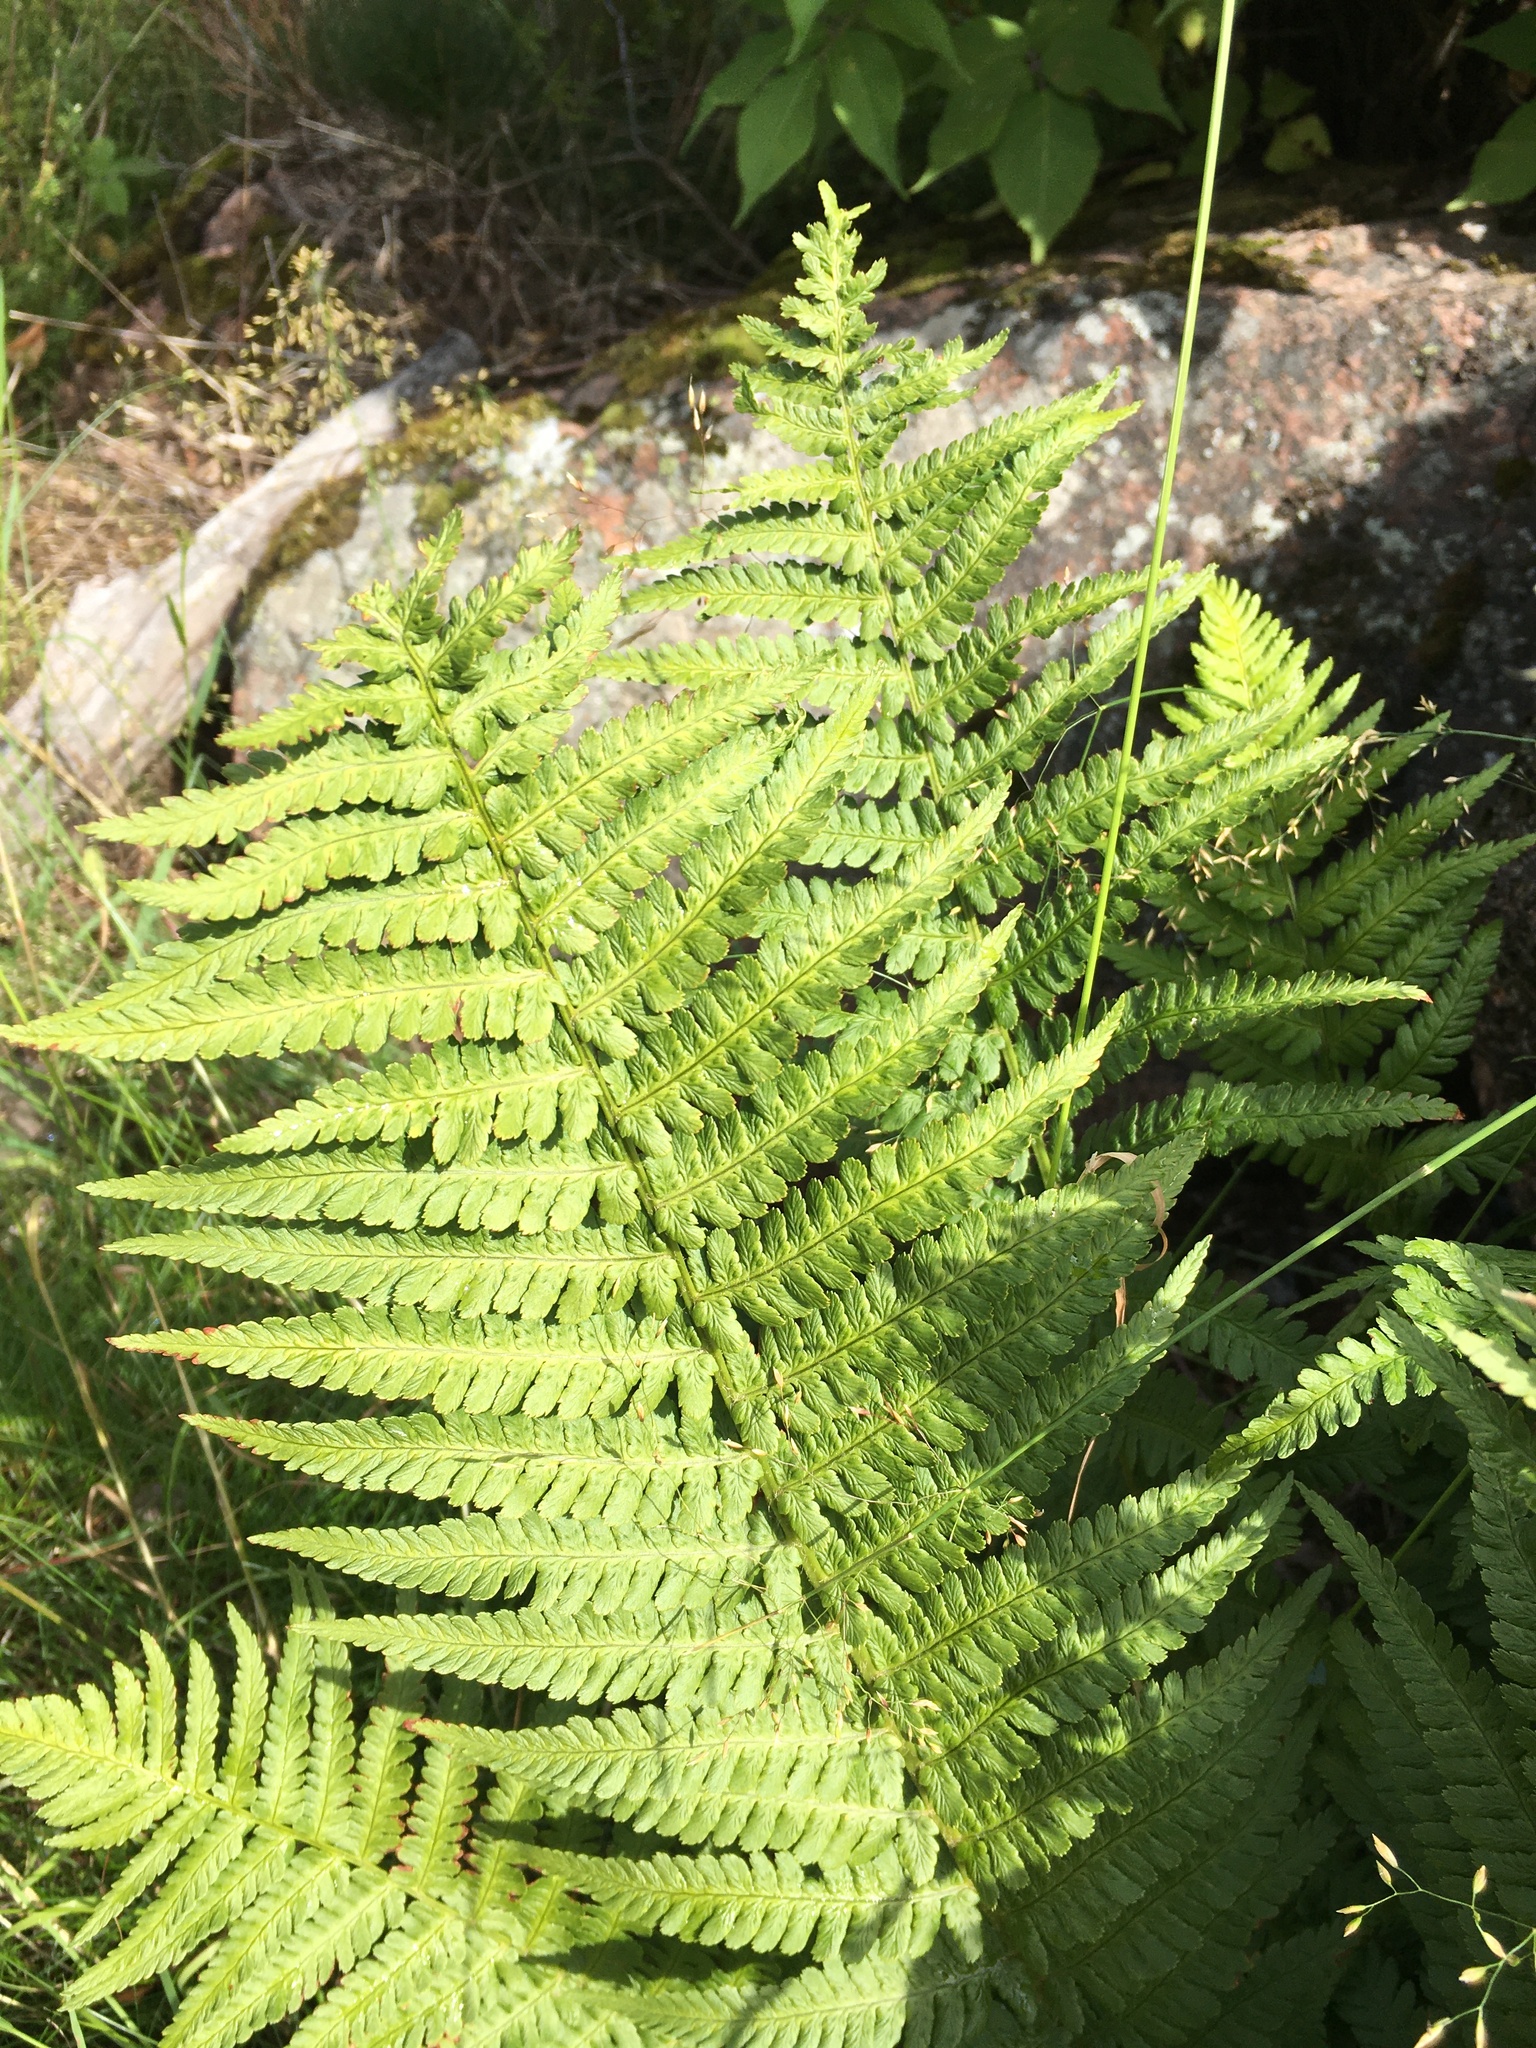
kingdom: Plantae
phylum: Tracheophyta
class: Polypodiopsida
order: Polypodiales
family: Dryopteridaceae
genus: Dryopteris
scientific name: Dryopteris filix-mas
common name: Male fern
